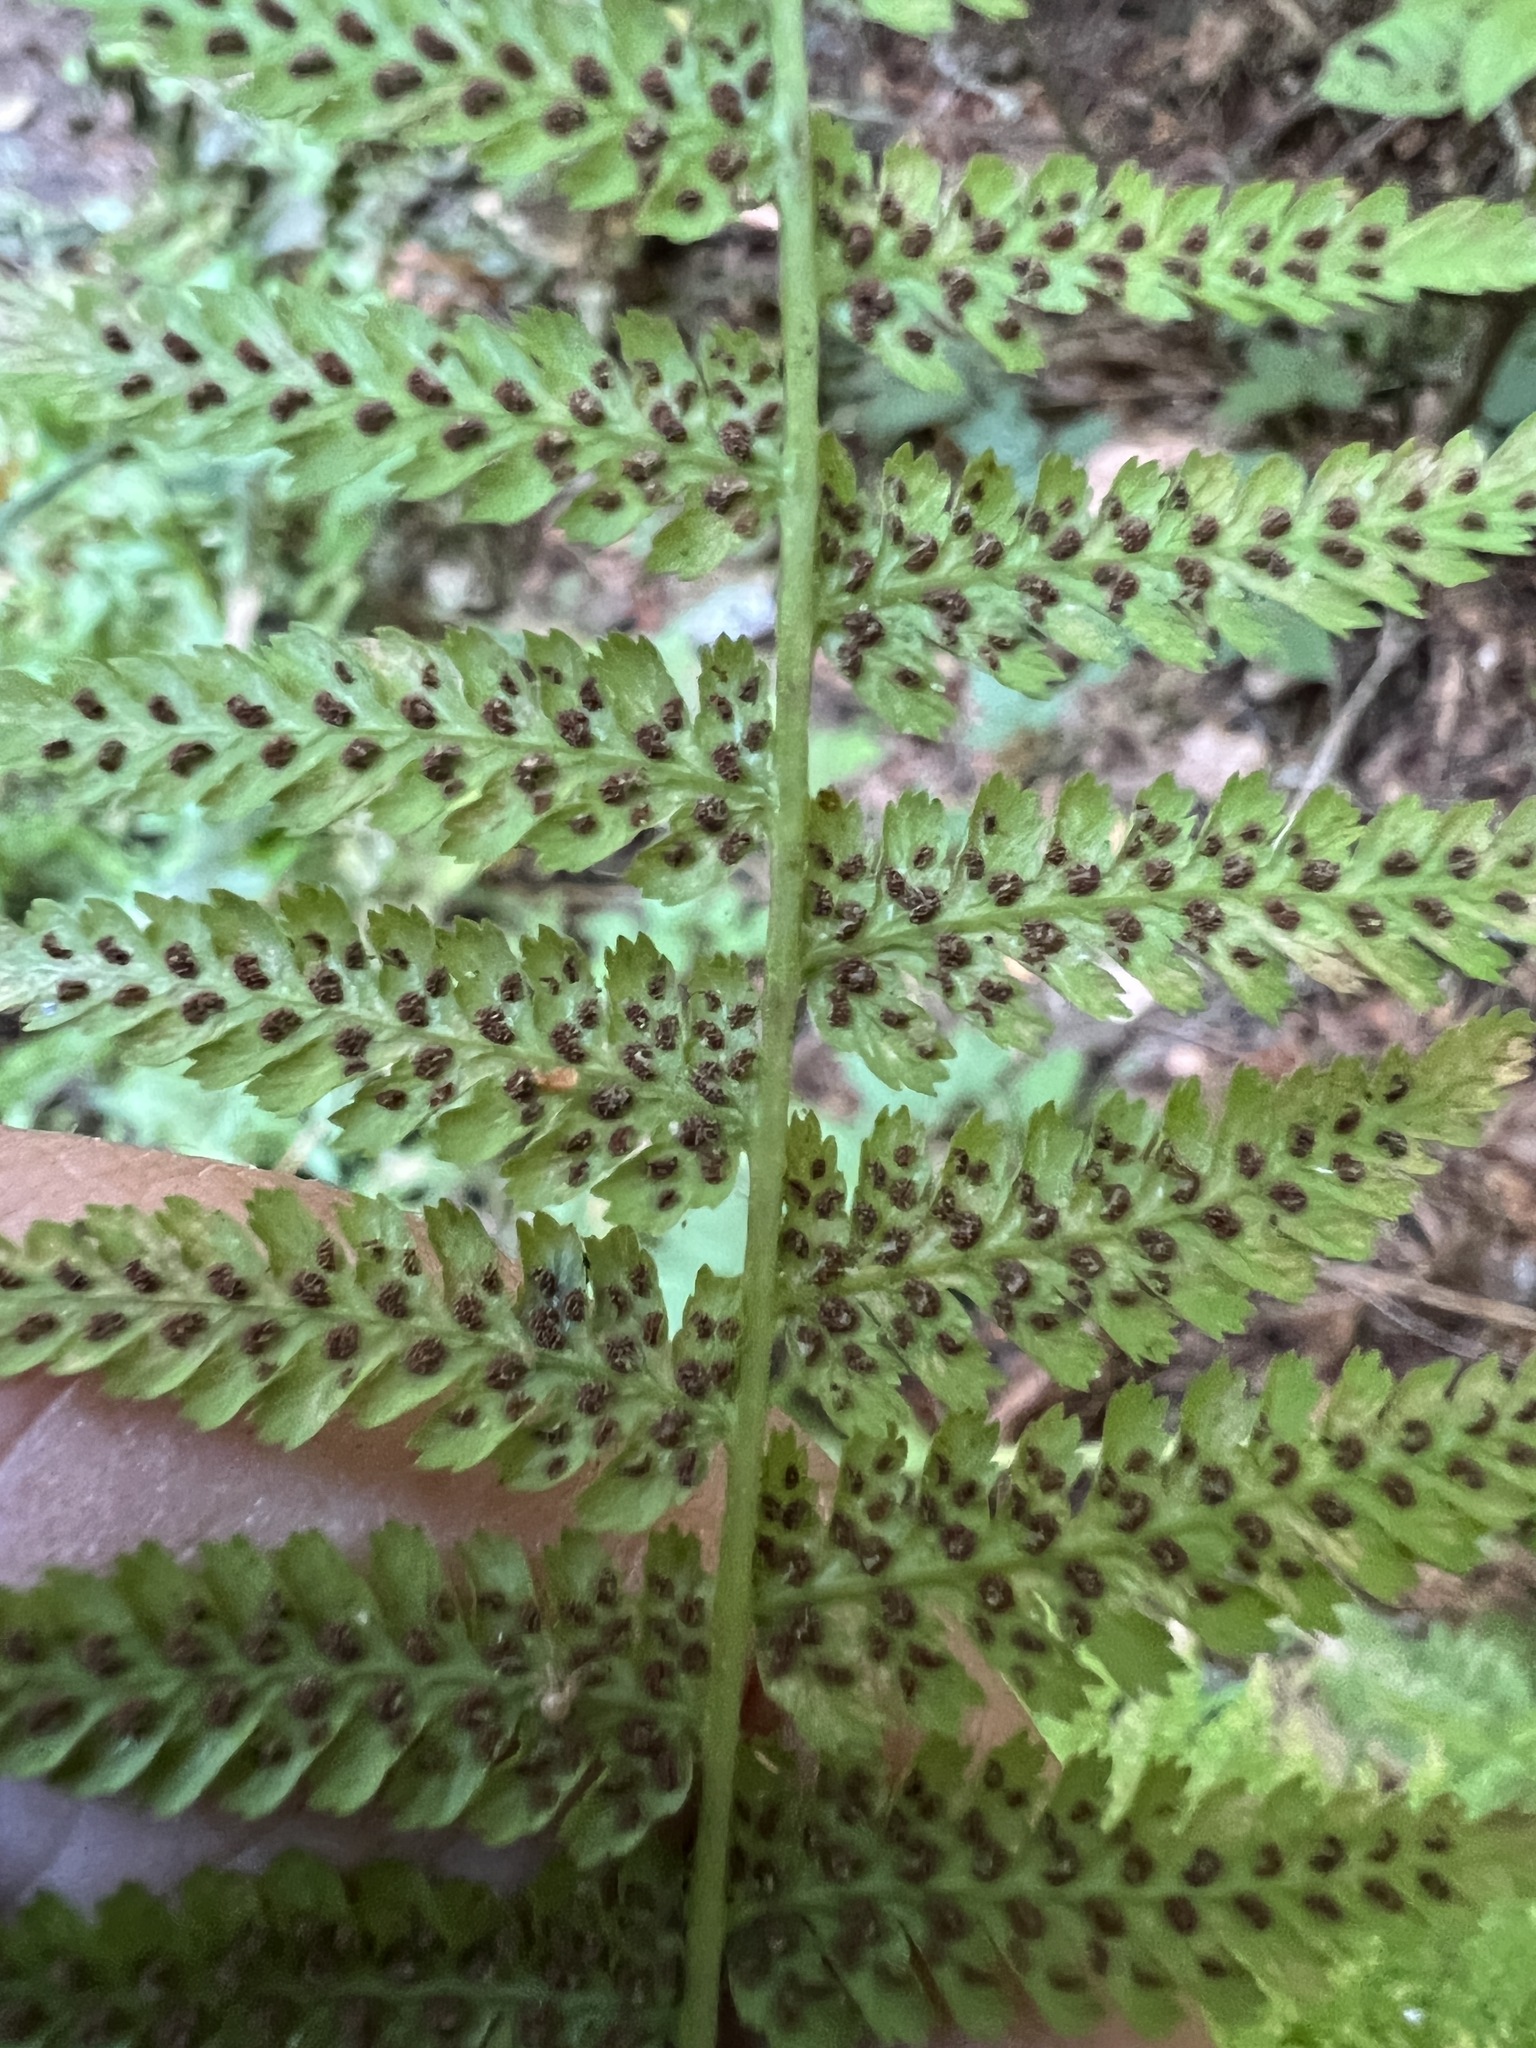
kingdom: Plantae
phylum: Tracheophyta
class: Polypodiopsida
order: Polypodiales
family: Athyriaceae
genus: Athyrium
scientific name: Athyrium cyclosorum
